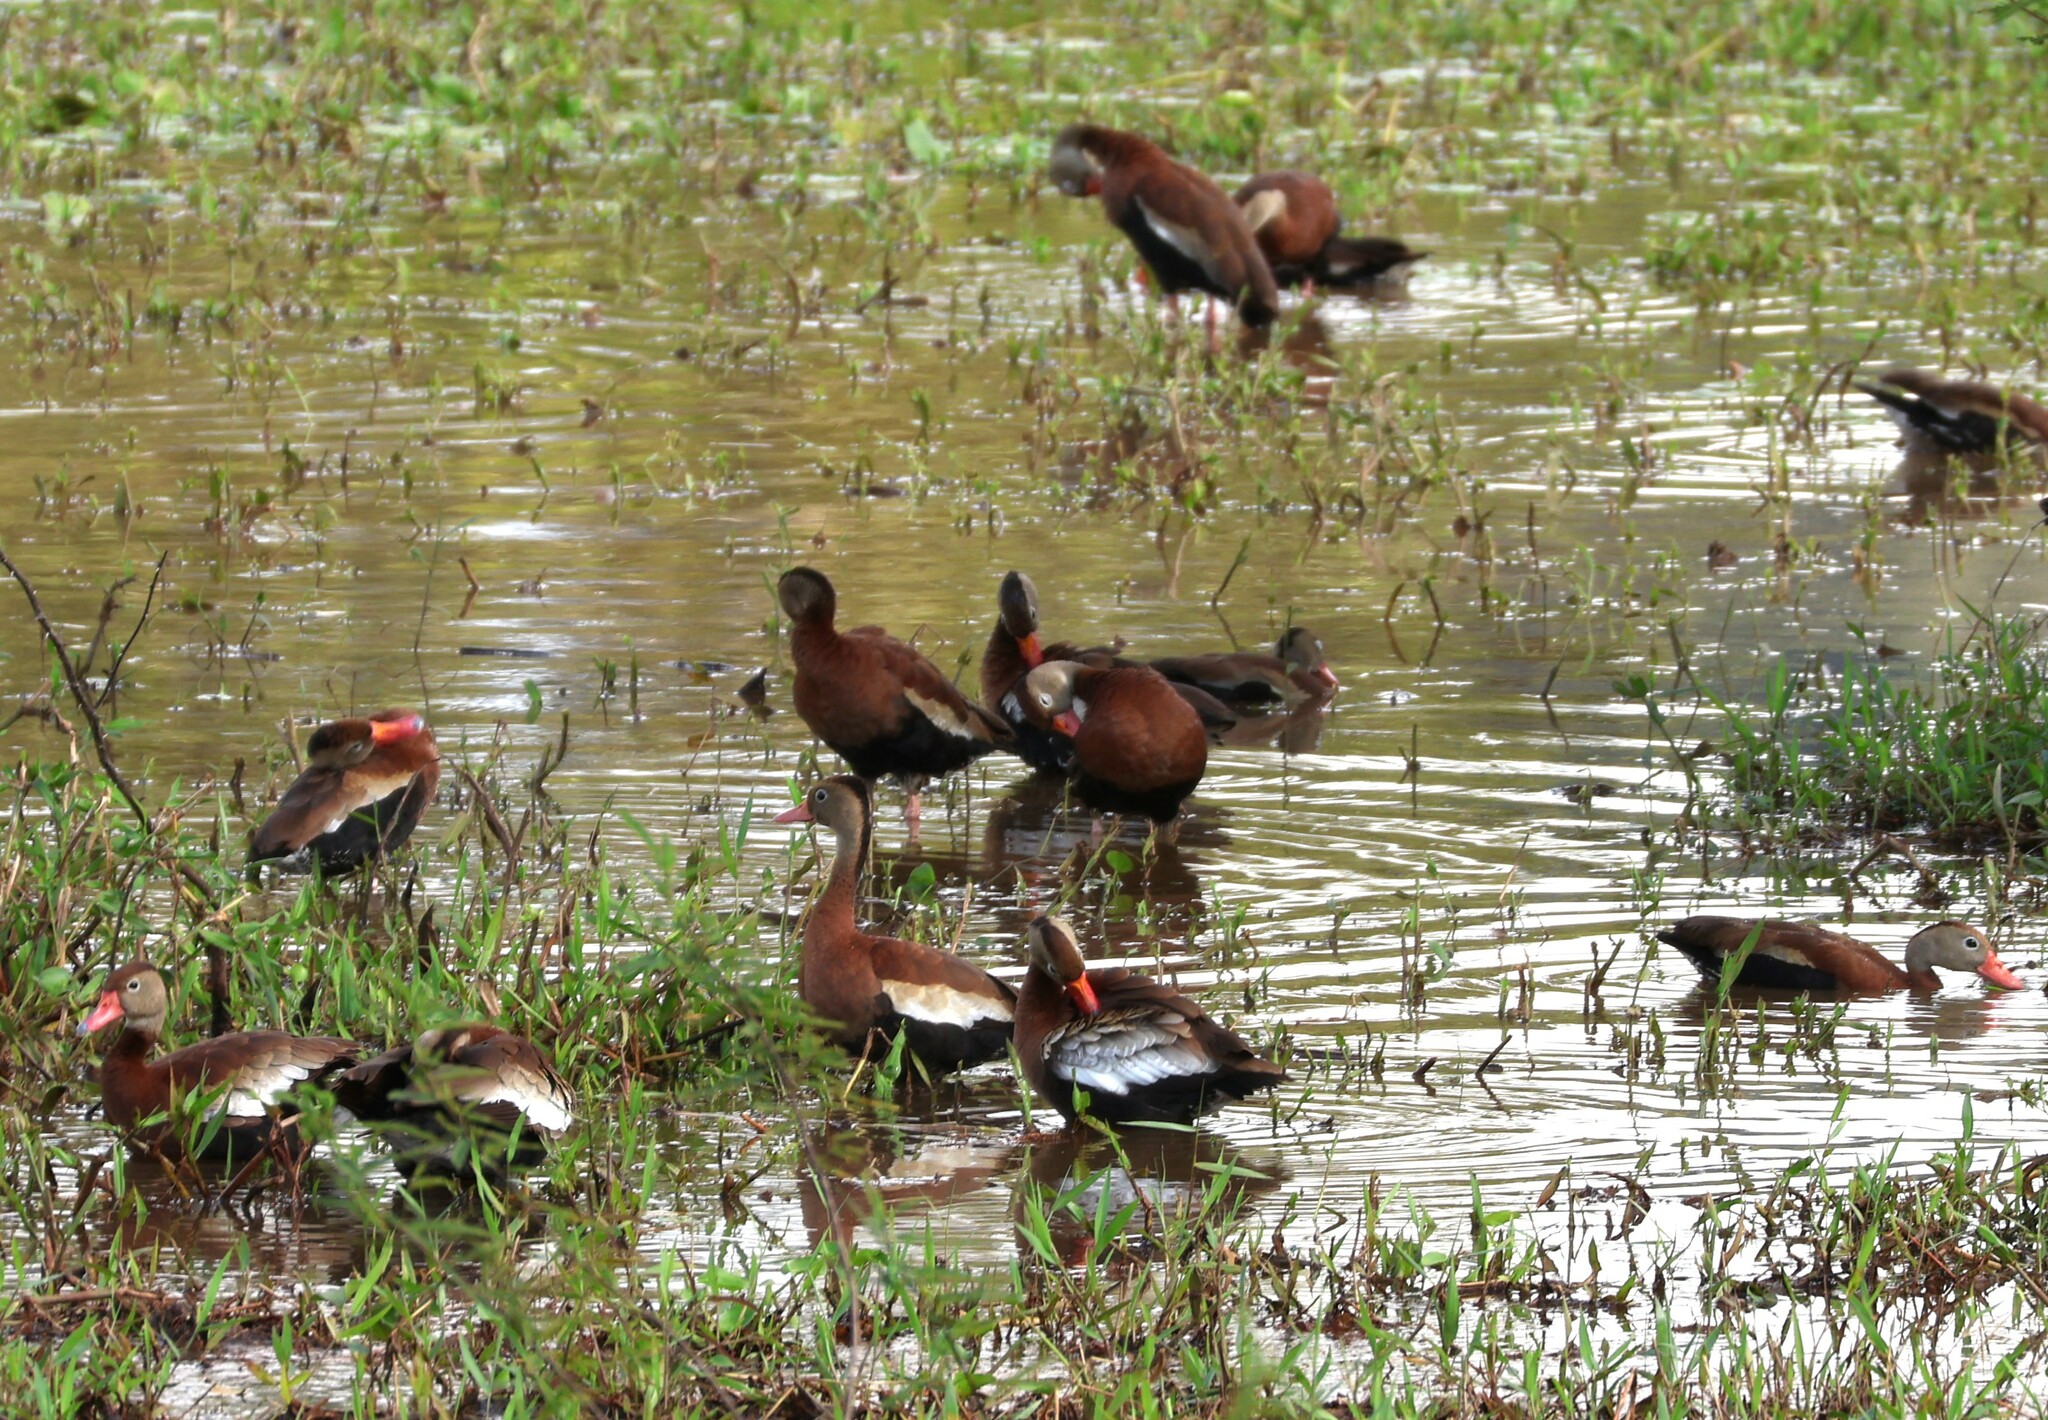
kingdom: Animalia
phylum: Chordata
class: Aves
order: Anseriformes
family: Anatidae
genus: Dendrocygna
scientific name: Dendrocygna autumnalis
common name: Black-bellied whistling duck
